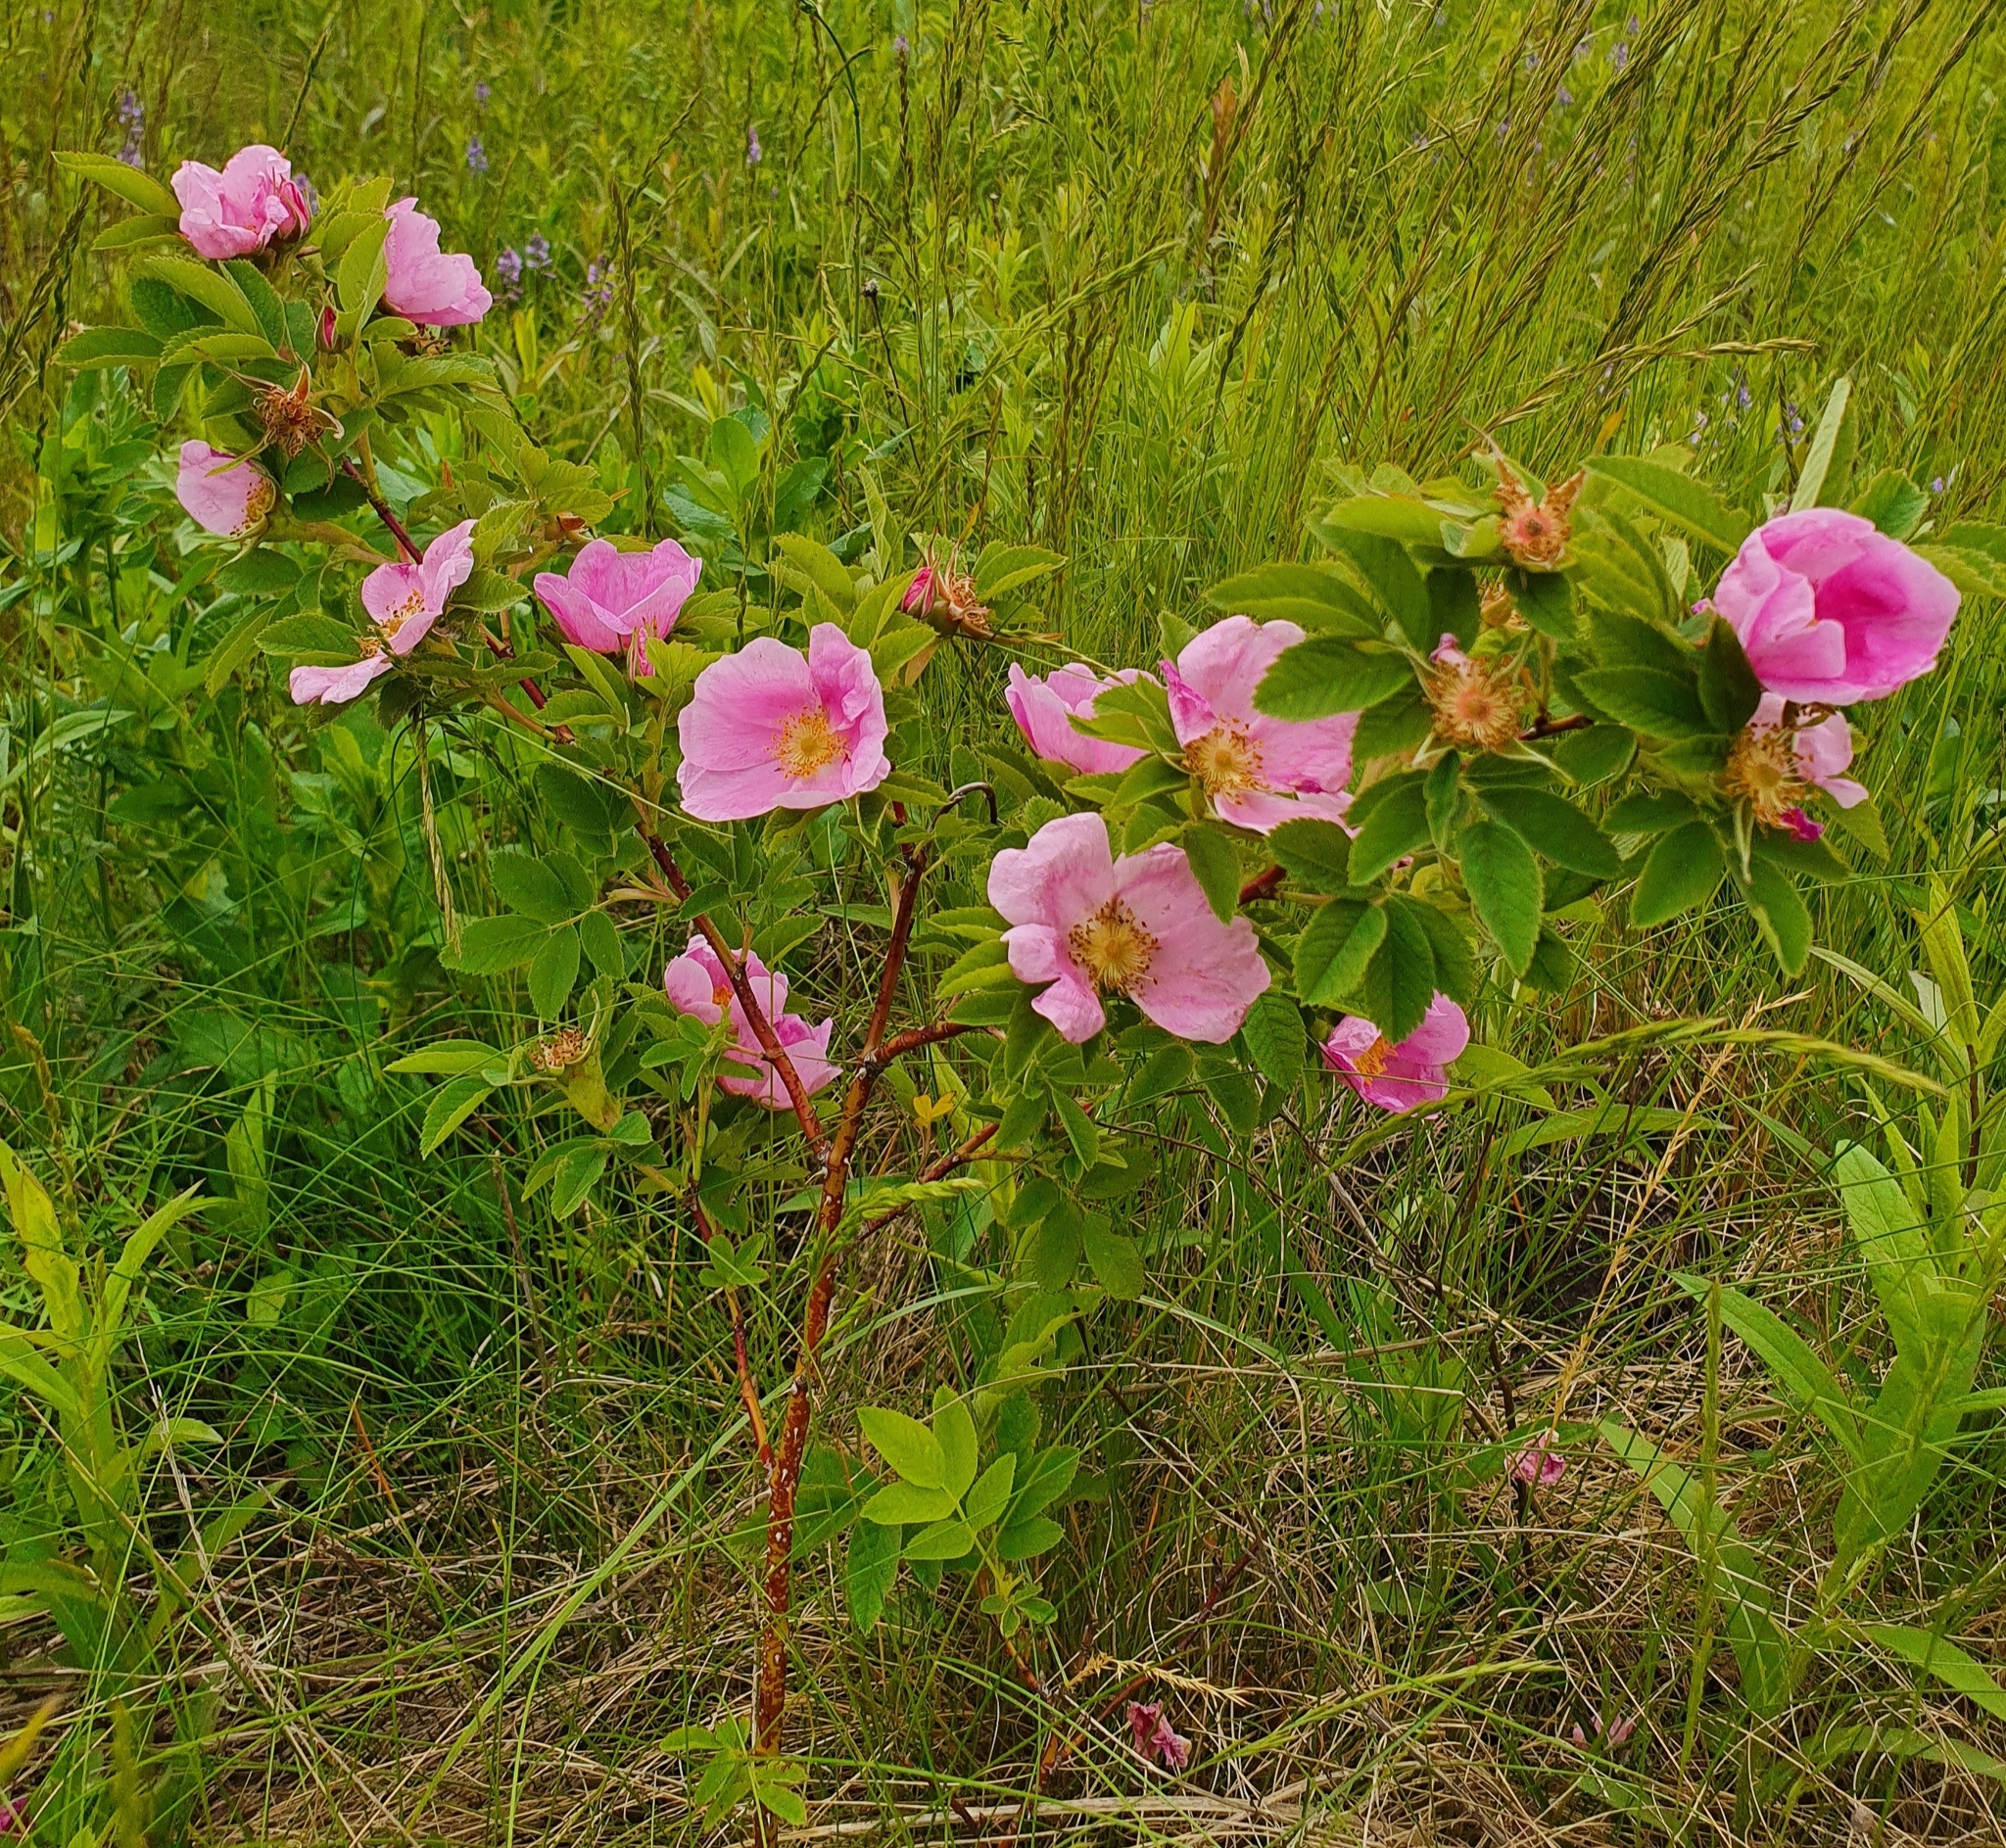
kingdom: Plantae
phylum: Tracheophyta
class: Magnoliopsida
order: Rosales
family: Rosaceae
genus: Rosa
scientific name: Rosa majalis
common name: Cinnamon rose
